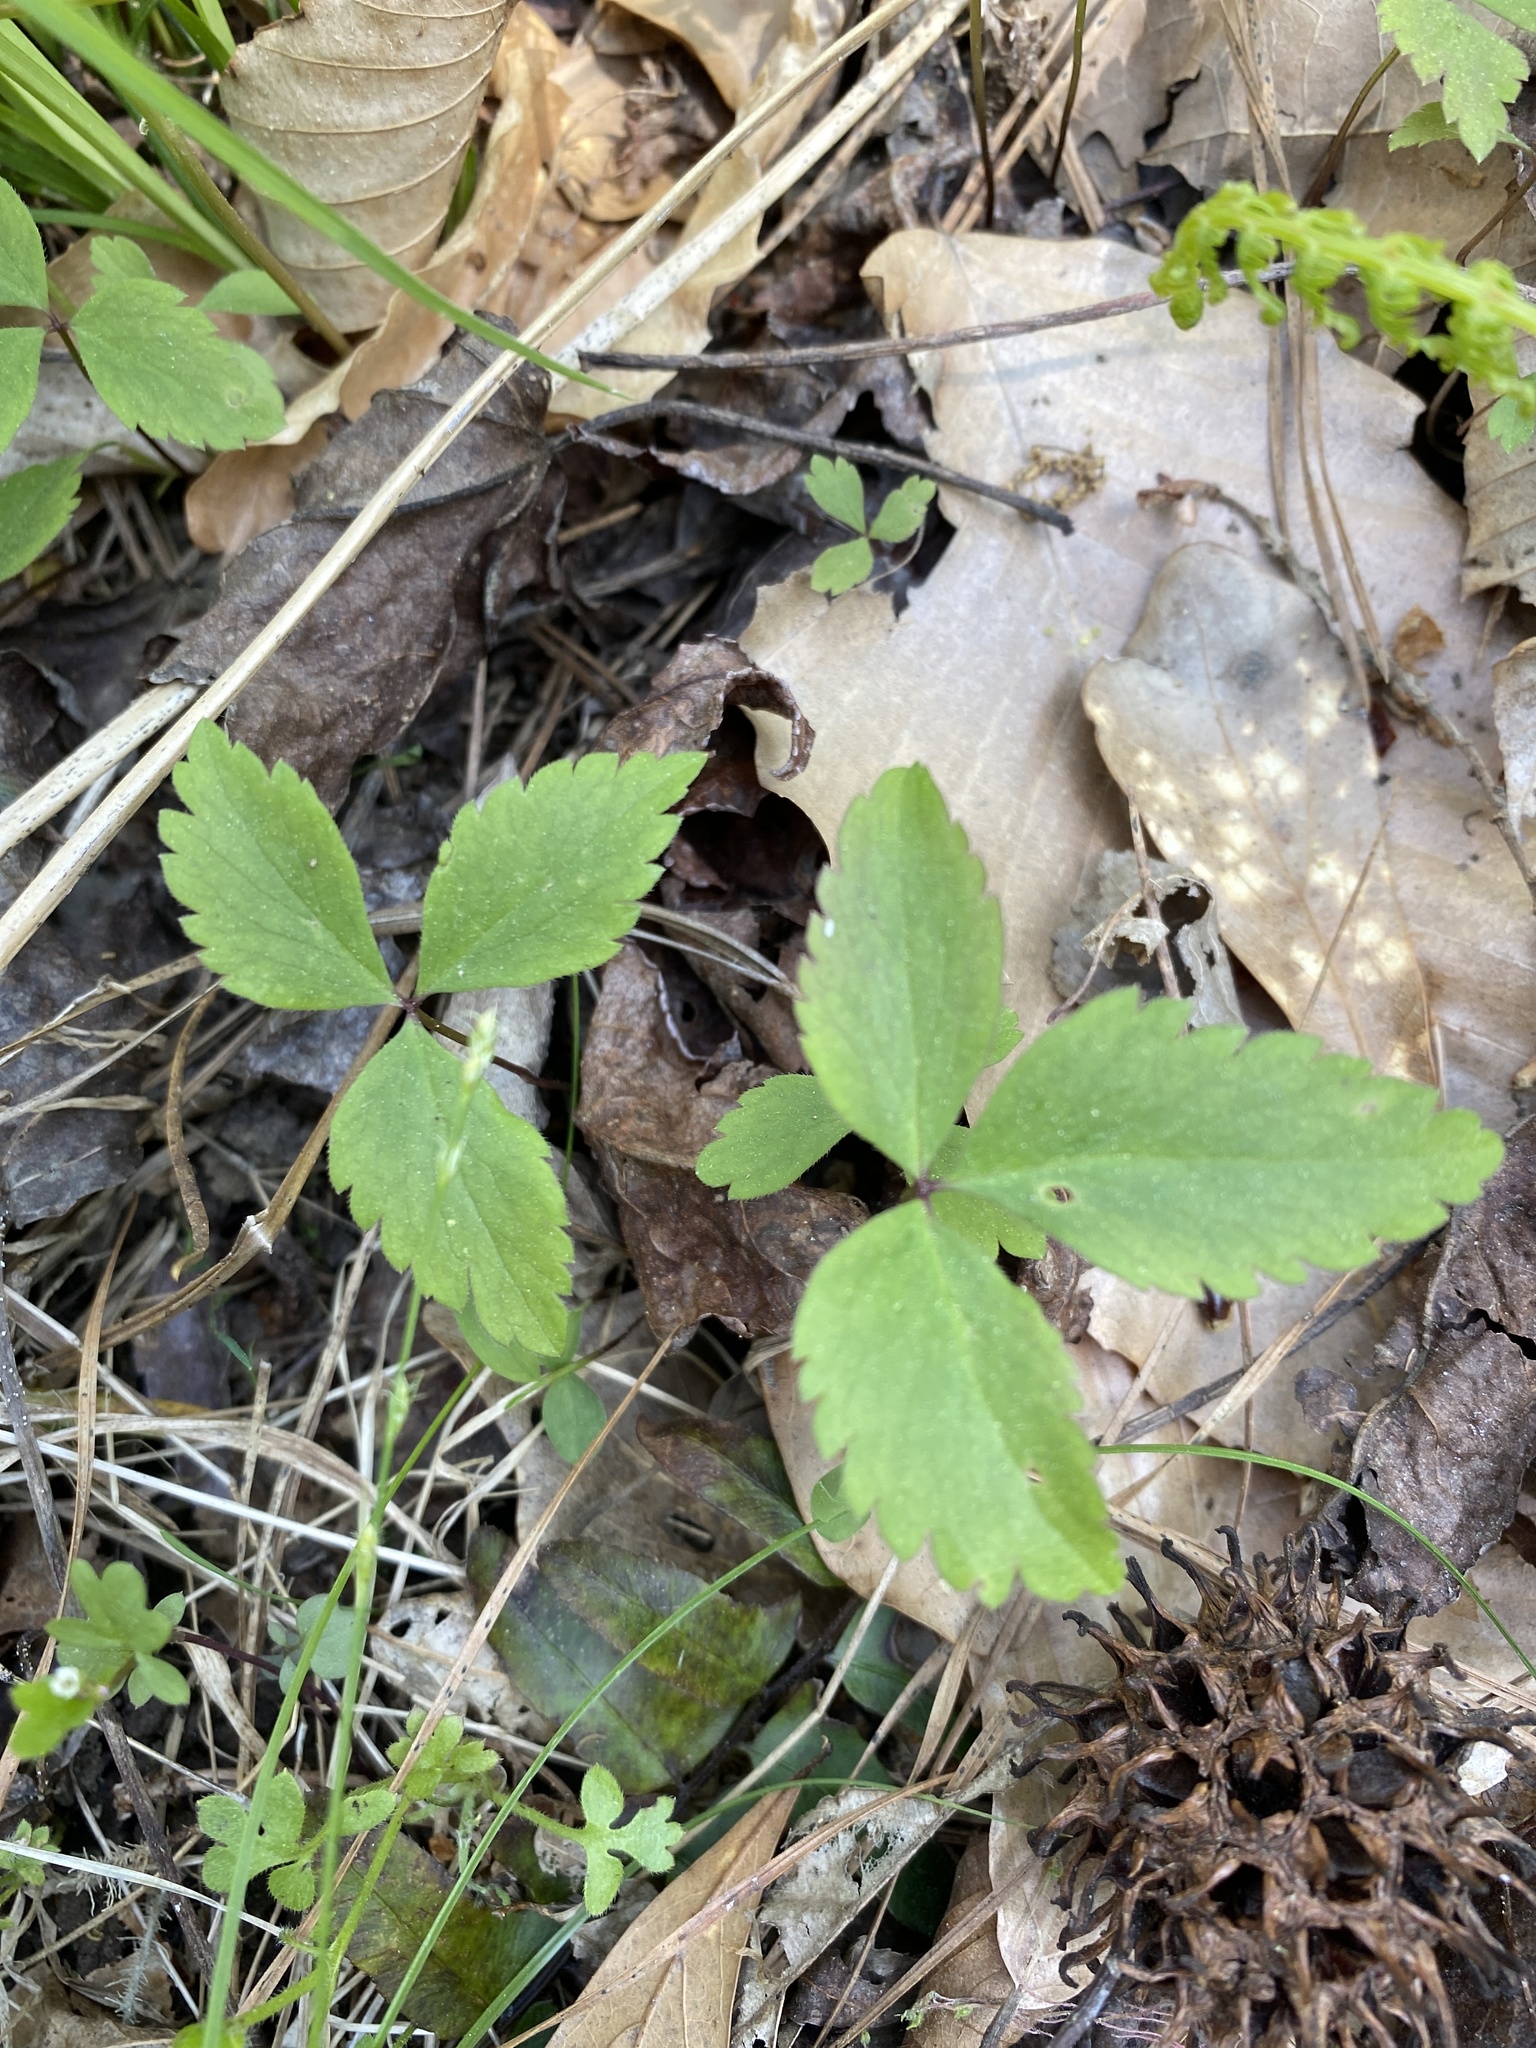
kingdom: Plantae
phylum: Tracheophyta
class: Magnoliopsida
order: Ranunculales
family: Ranunculaceae
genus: Anemone
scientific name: Anemone lancifolia
